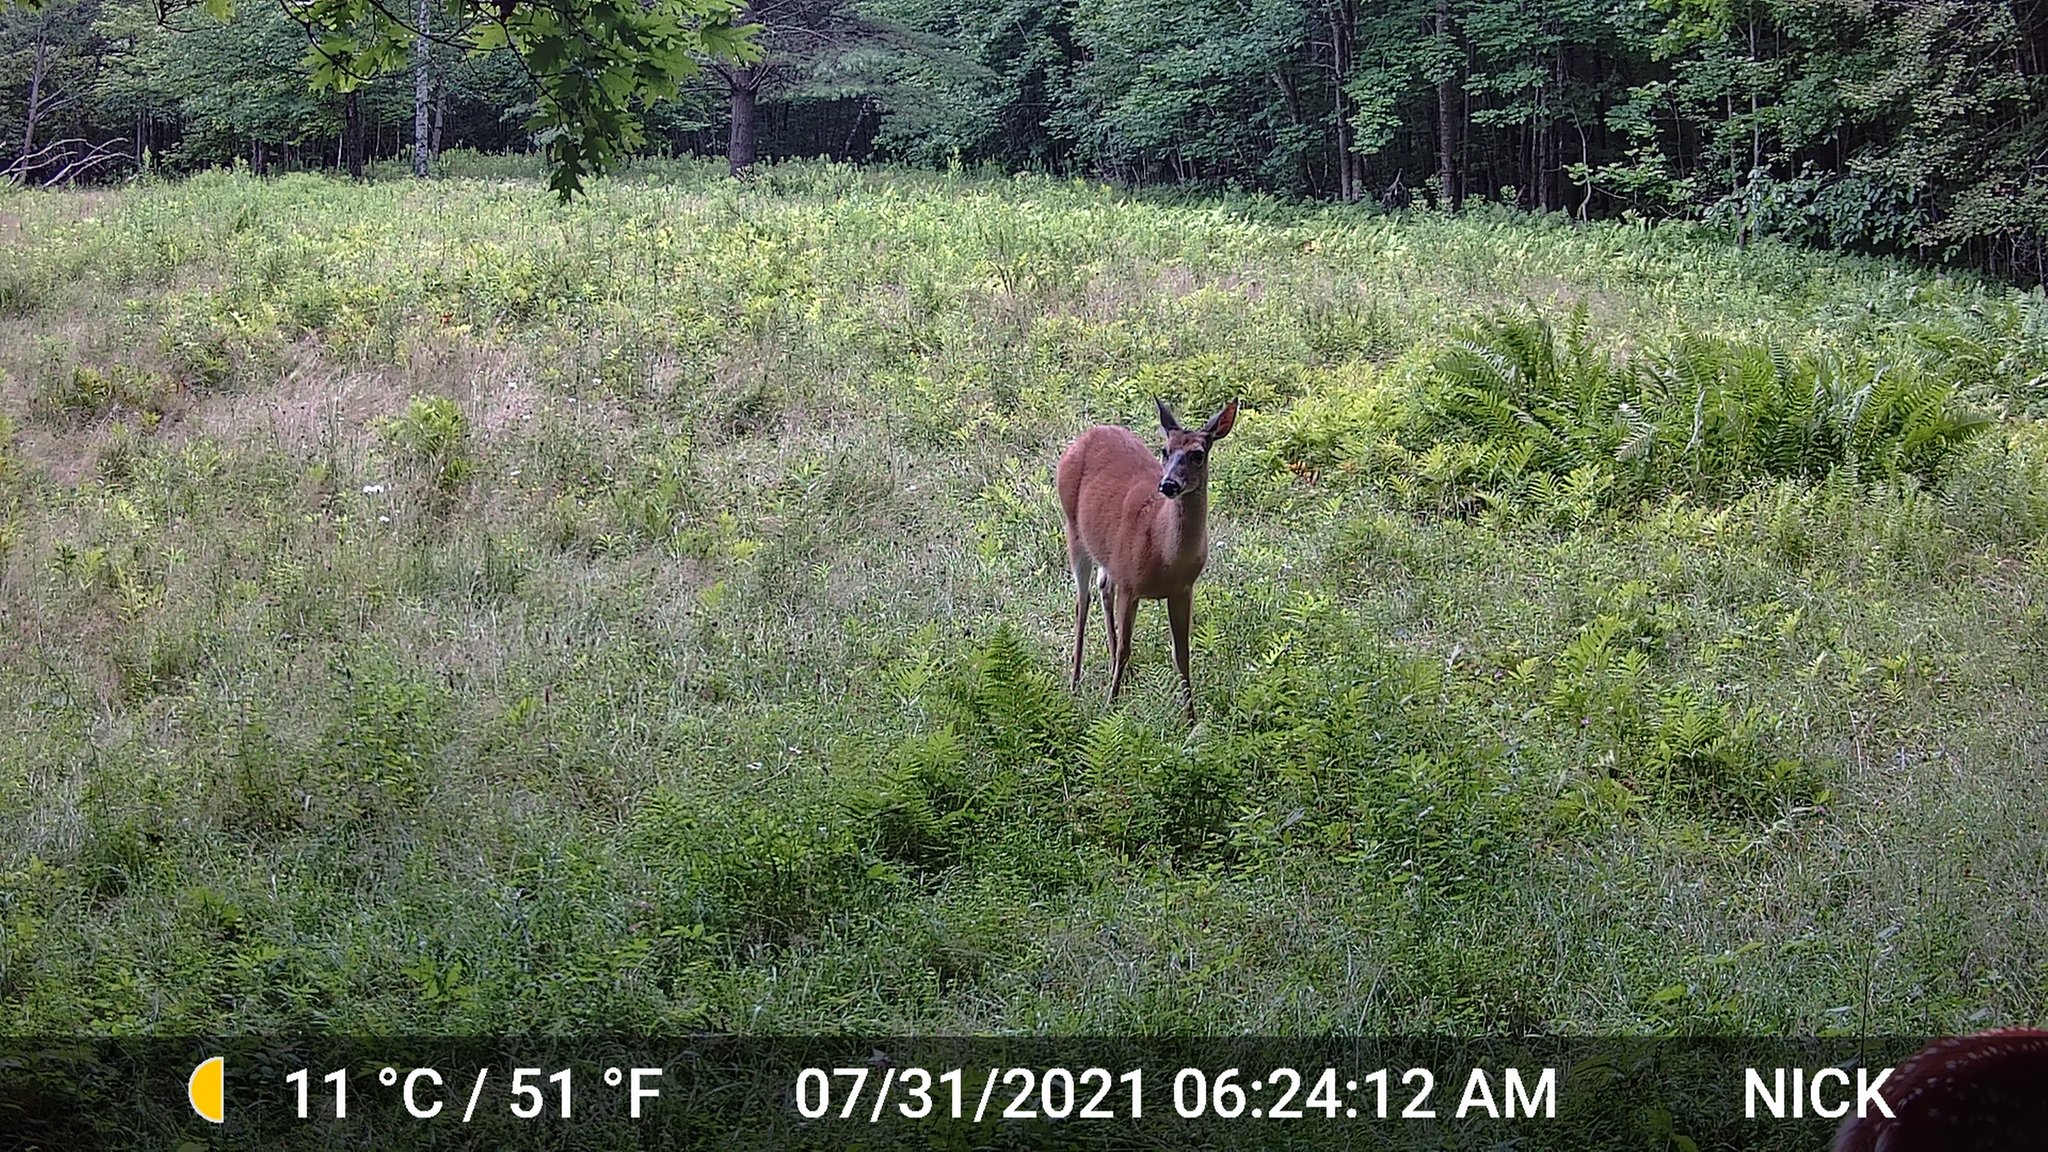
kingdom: Animalia
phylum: Chordata
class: Mammalia
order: Artiodactyla
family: Cervidae
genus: Odocoileus
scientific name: Odocoileus virginianus
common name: White-tailed deer
